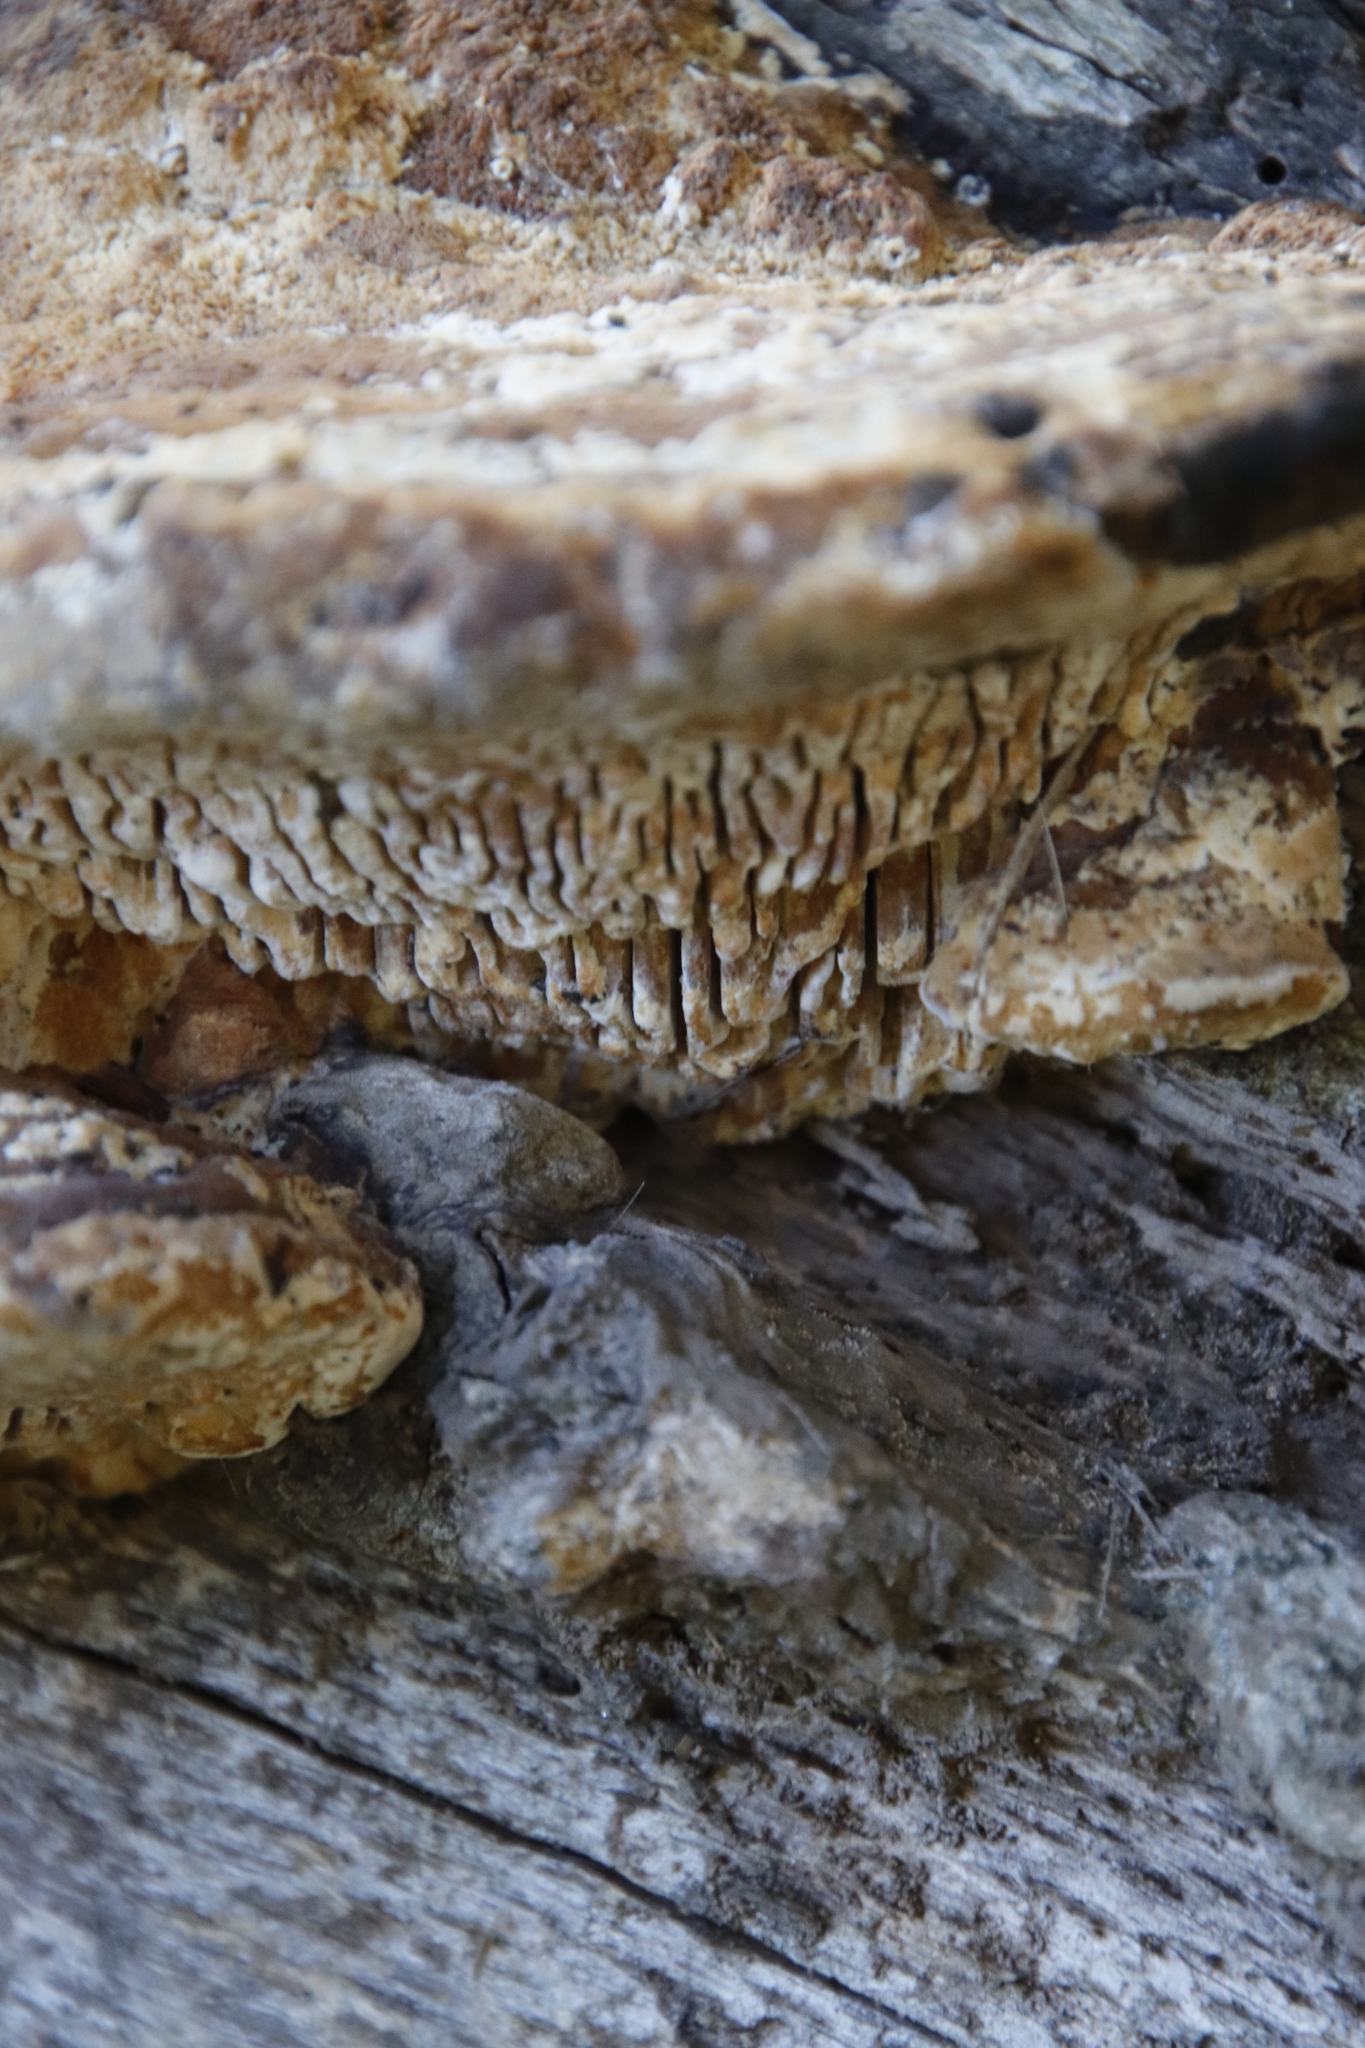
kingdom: Fungi
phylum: Basidiomycota
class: Agaricomycetes
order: Polyporales
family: Fomitopsidaceae
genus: Fomitopsis
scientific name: Fomitopsis
